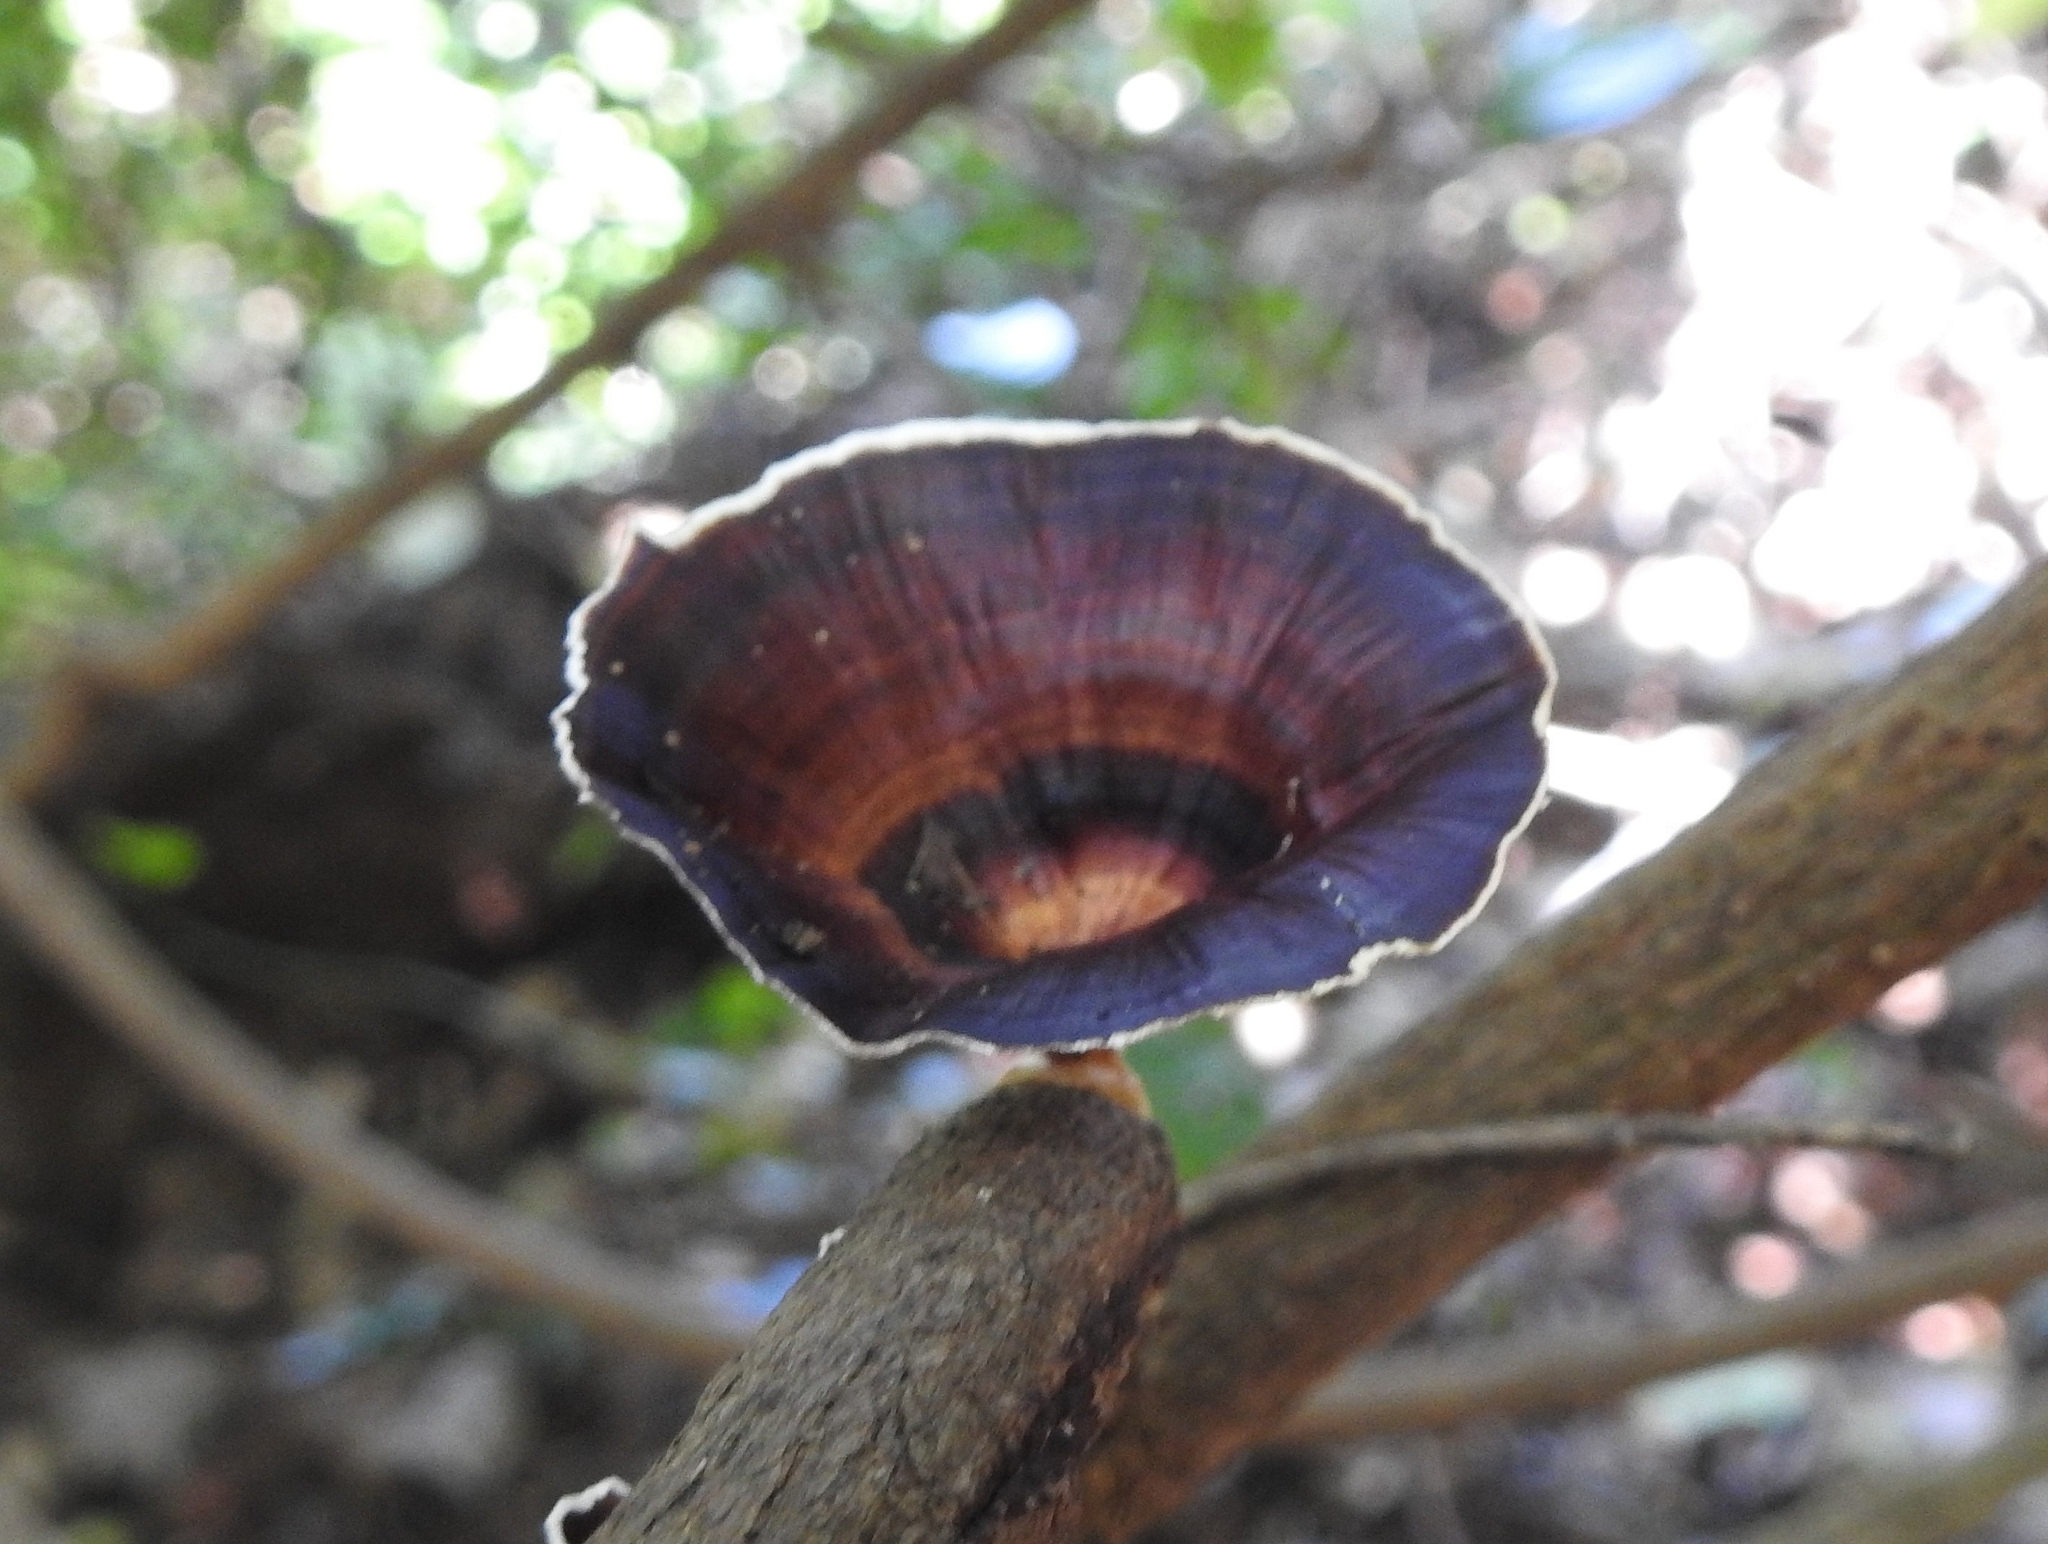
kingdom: Fungi
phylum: Basidiomycota
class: Agaricomycetes
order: Polyporales
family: Polyporaceae
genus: Microporus
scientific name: Microporus xanthopus
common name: Yellow-stemmed micropore
